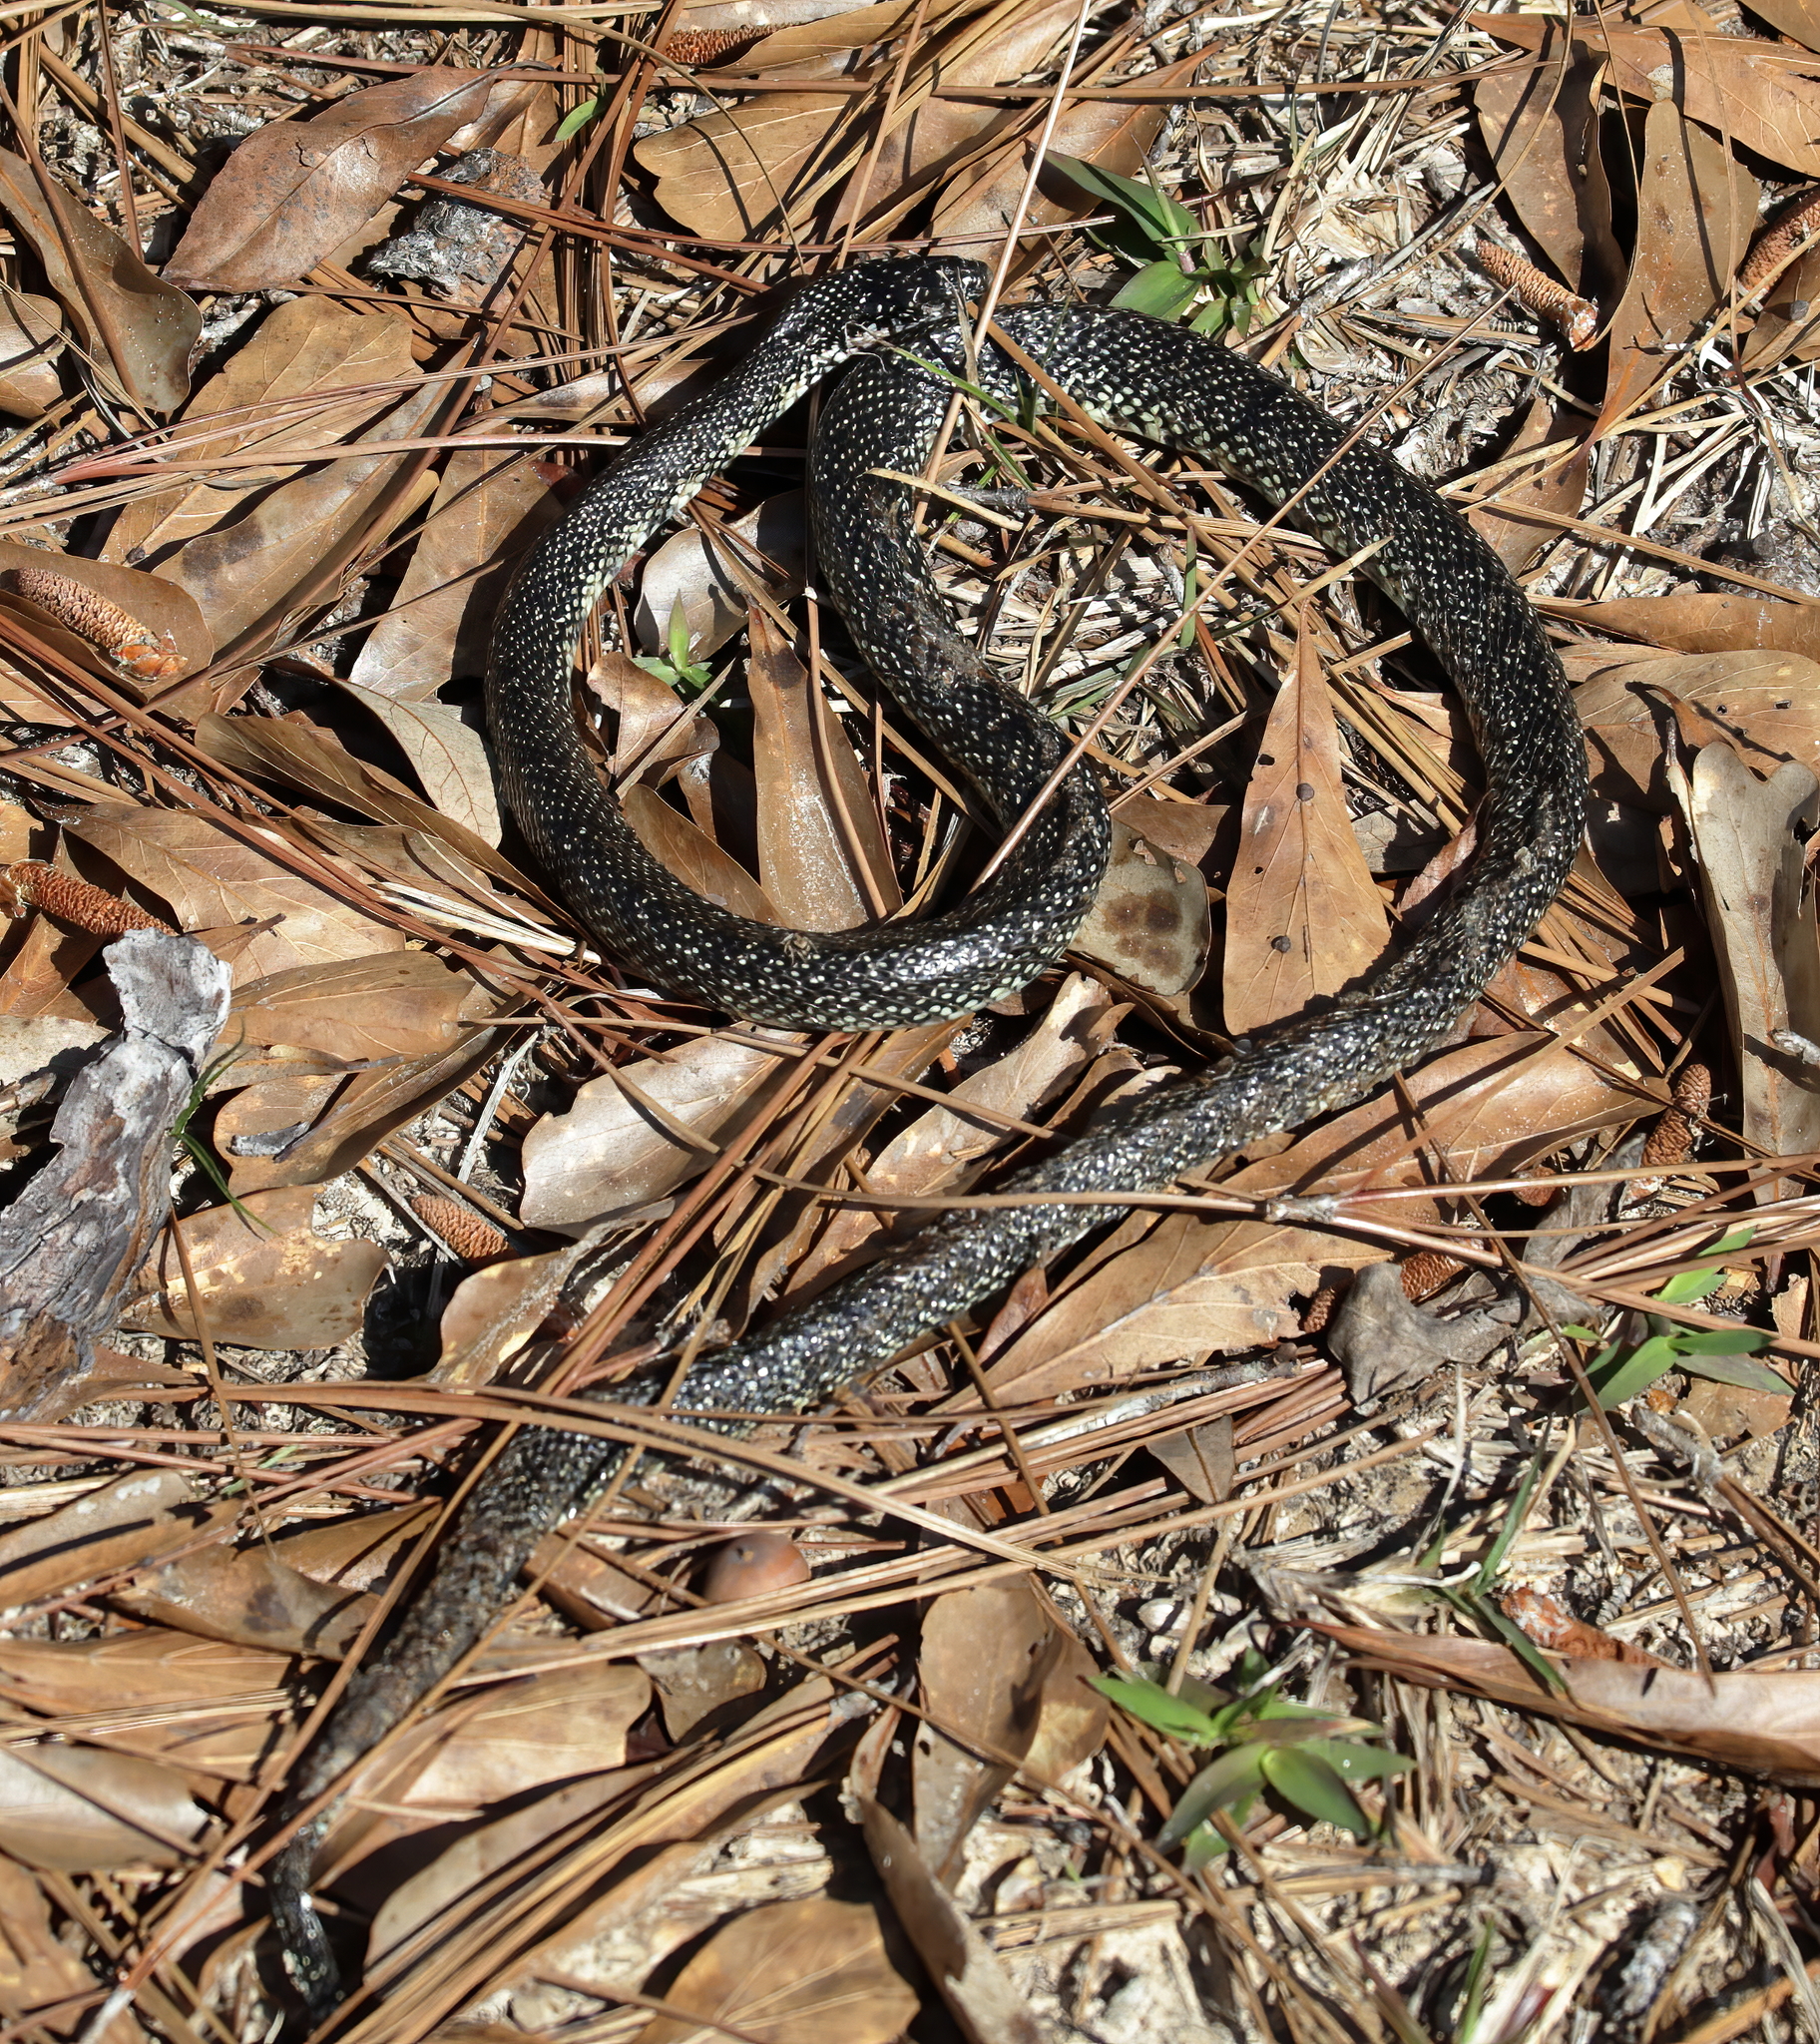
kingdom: Animalia
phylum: Chordata
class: Squamata
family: Colubridae
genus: Lampropeltis
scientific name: Lampropeltis holbrooki
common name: Speckled kingsnake
